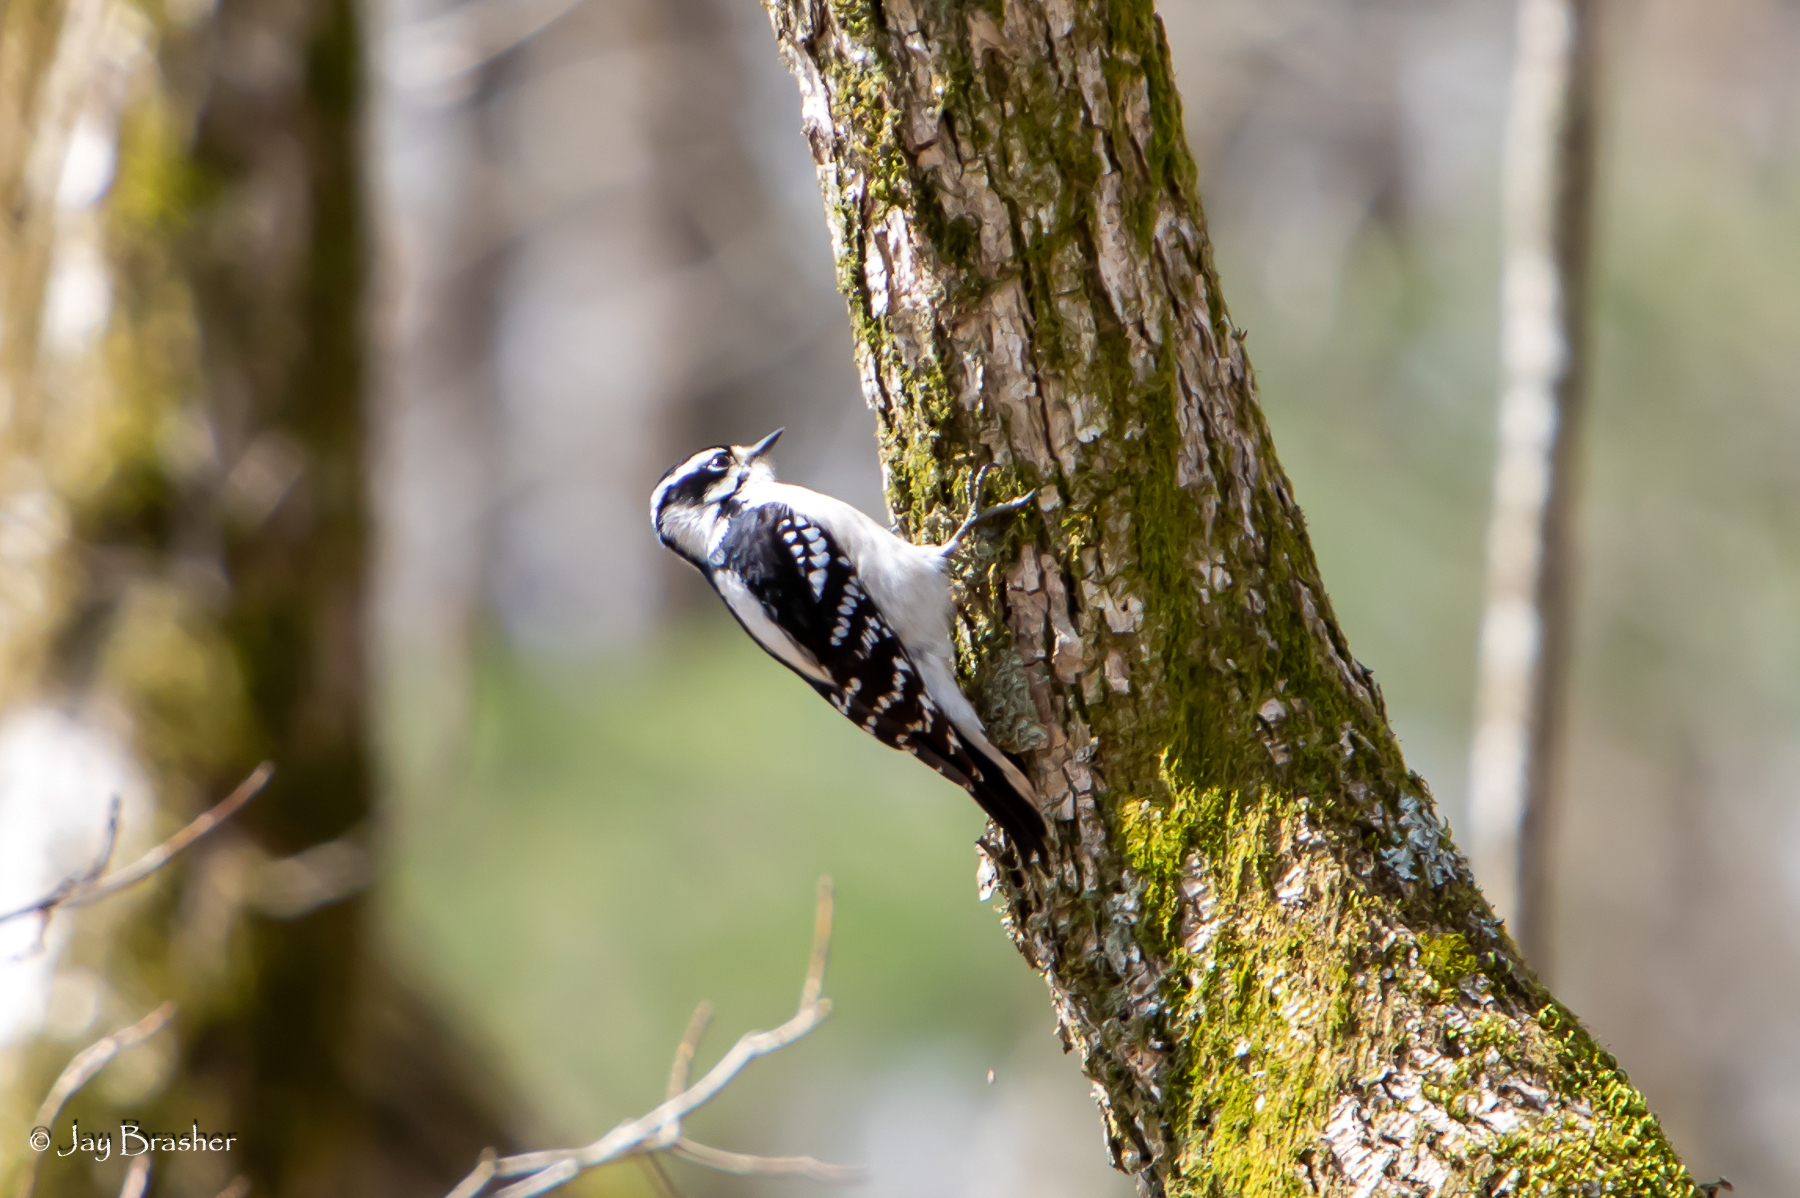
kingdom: Animalia
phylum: Chordata
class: Aves
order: Piciformes
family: Picidae
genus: Dryobates
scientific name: Dryobates pubescens
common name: Downy woodpecker
